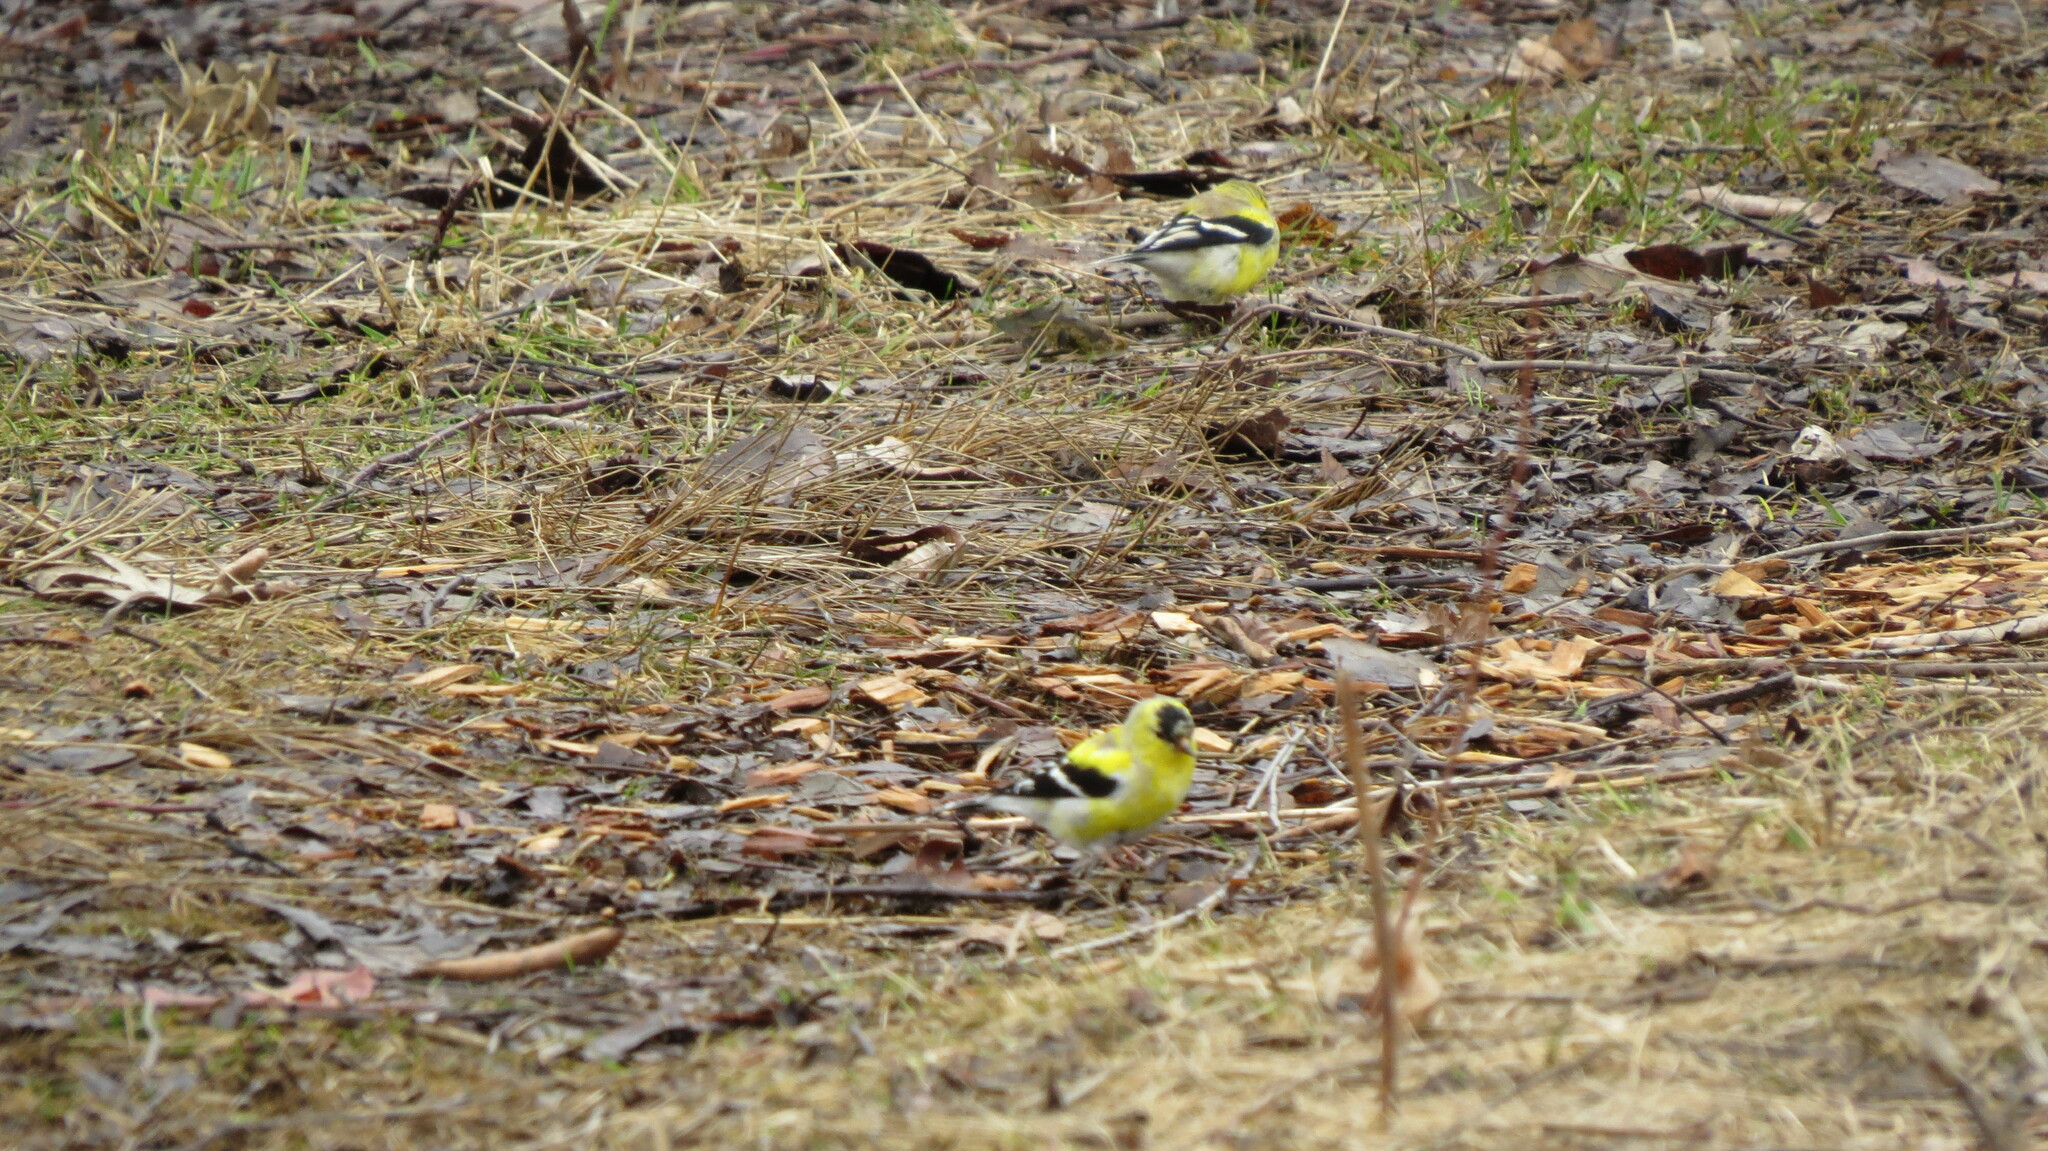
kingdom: Animalia
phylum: Chordata
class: Aves
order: Passeriformes
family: Fringillidae
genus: Spinus
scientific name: Spinus tristis
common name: American goldfinch
